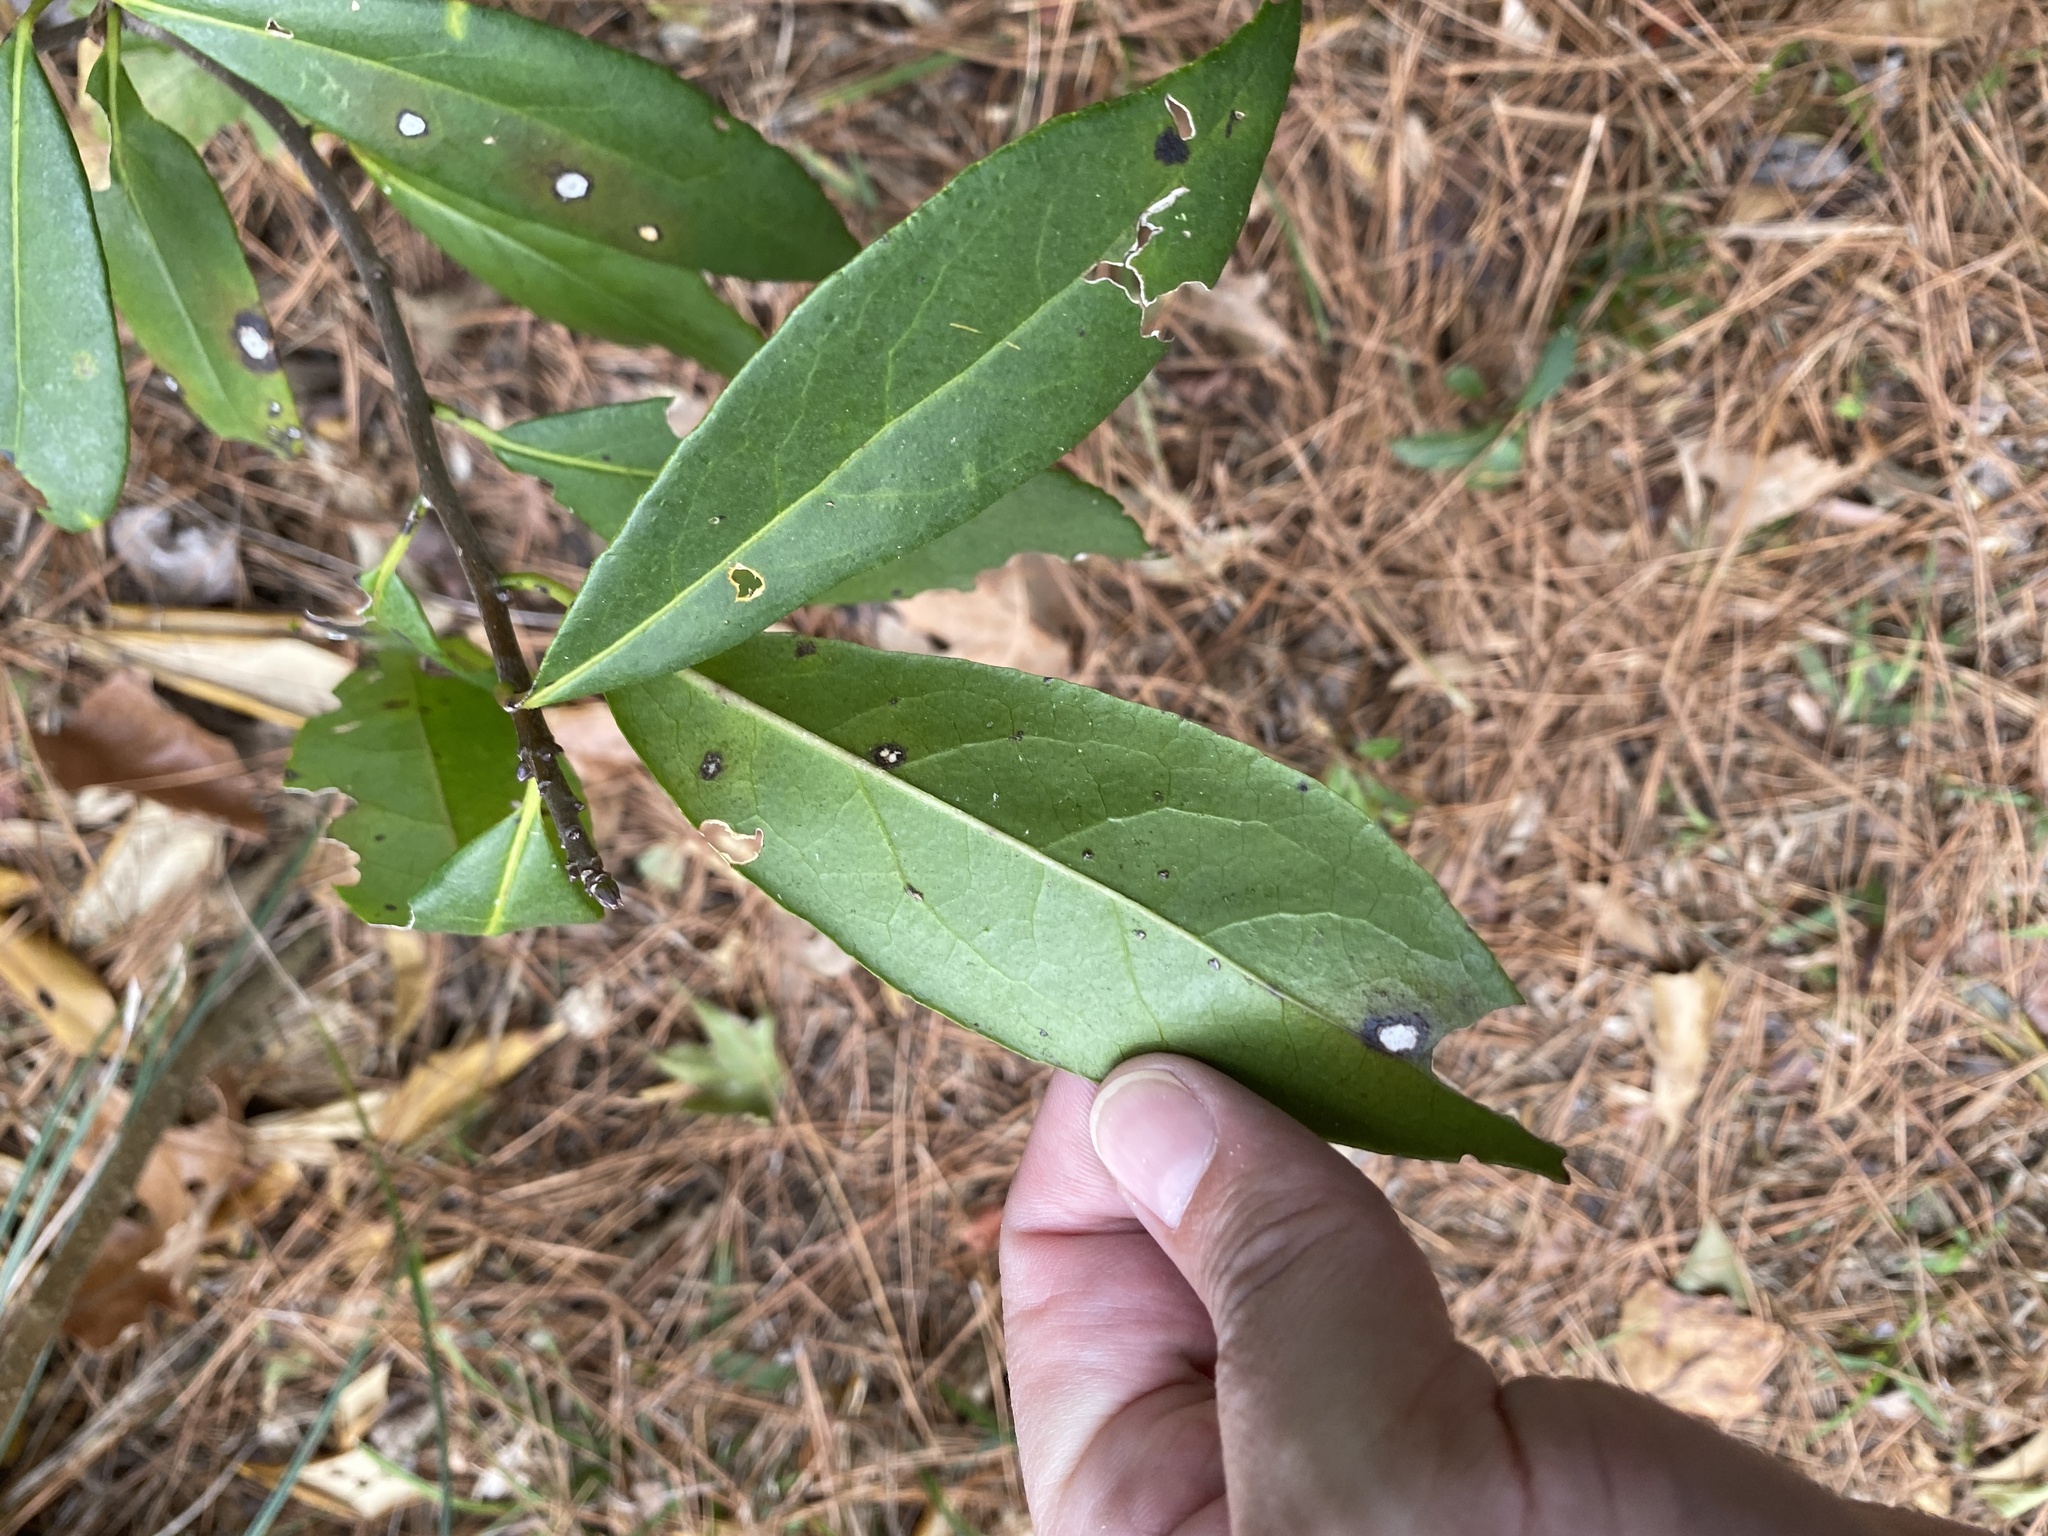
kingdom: Plantae
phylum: Tracheophyta
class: Magnoliopsida
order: Ericales
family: Symplocaceae
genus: Symplocos
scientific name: Symplocos tinctoria
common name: Horse-sugar
